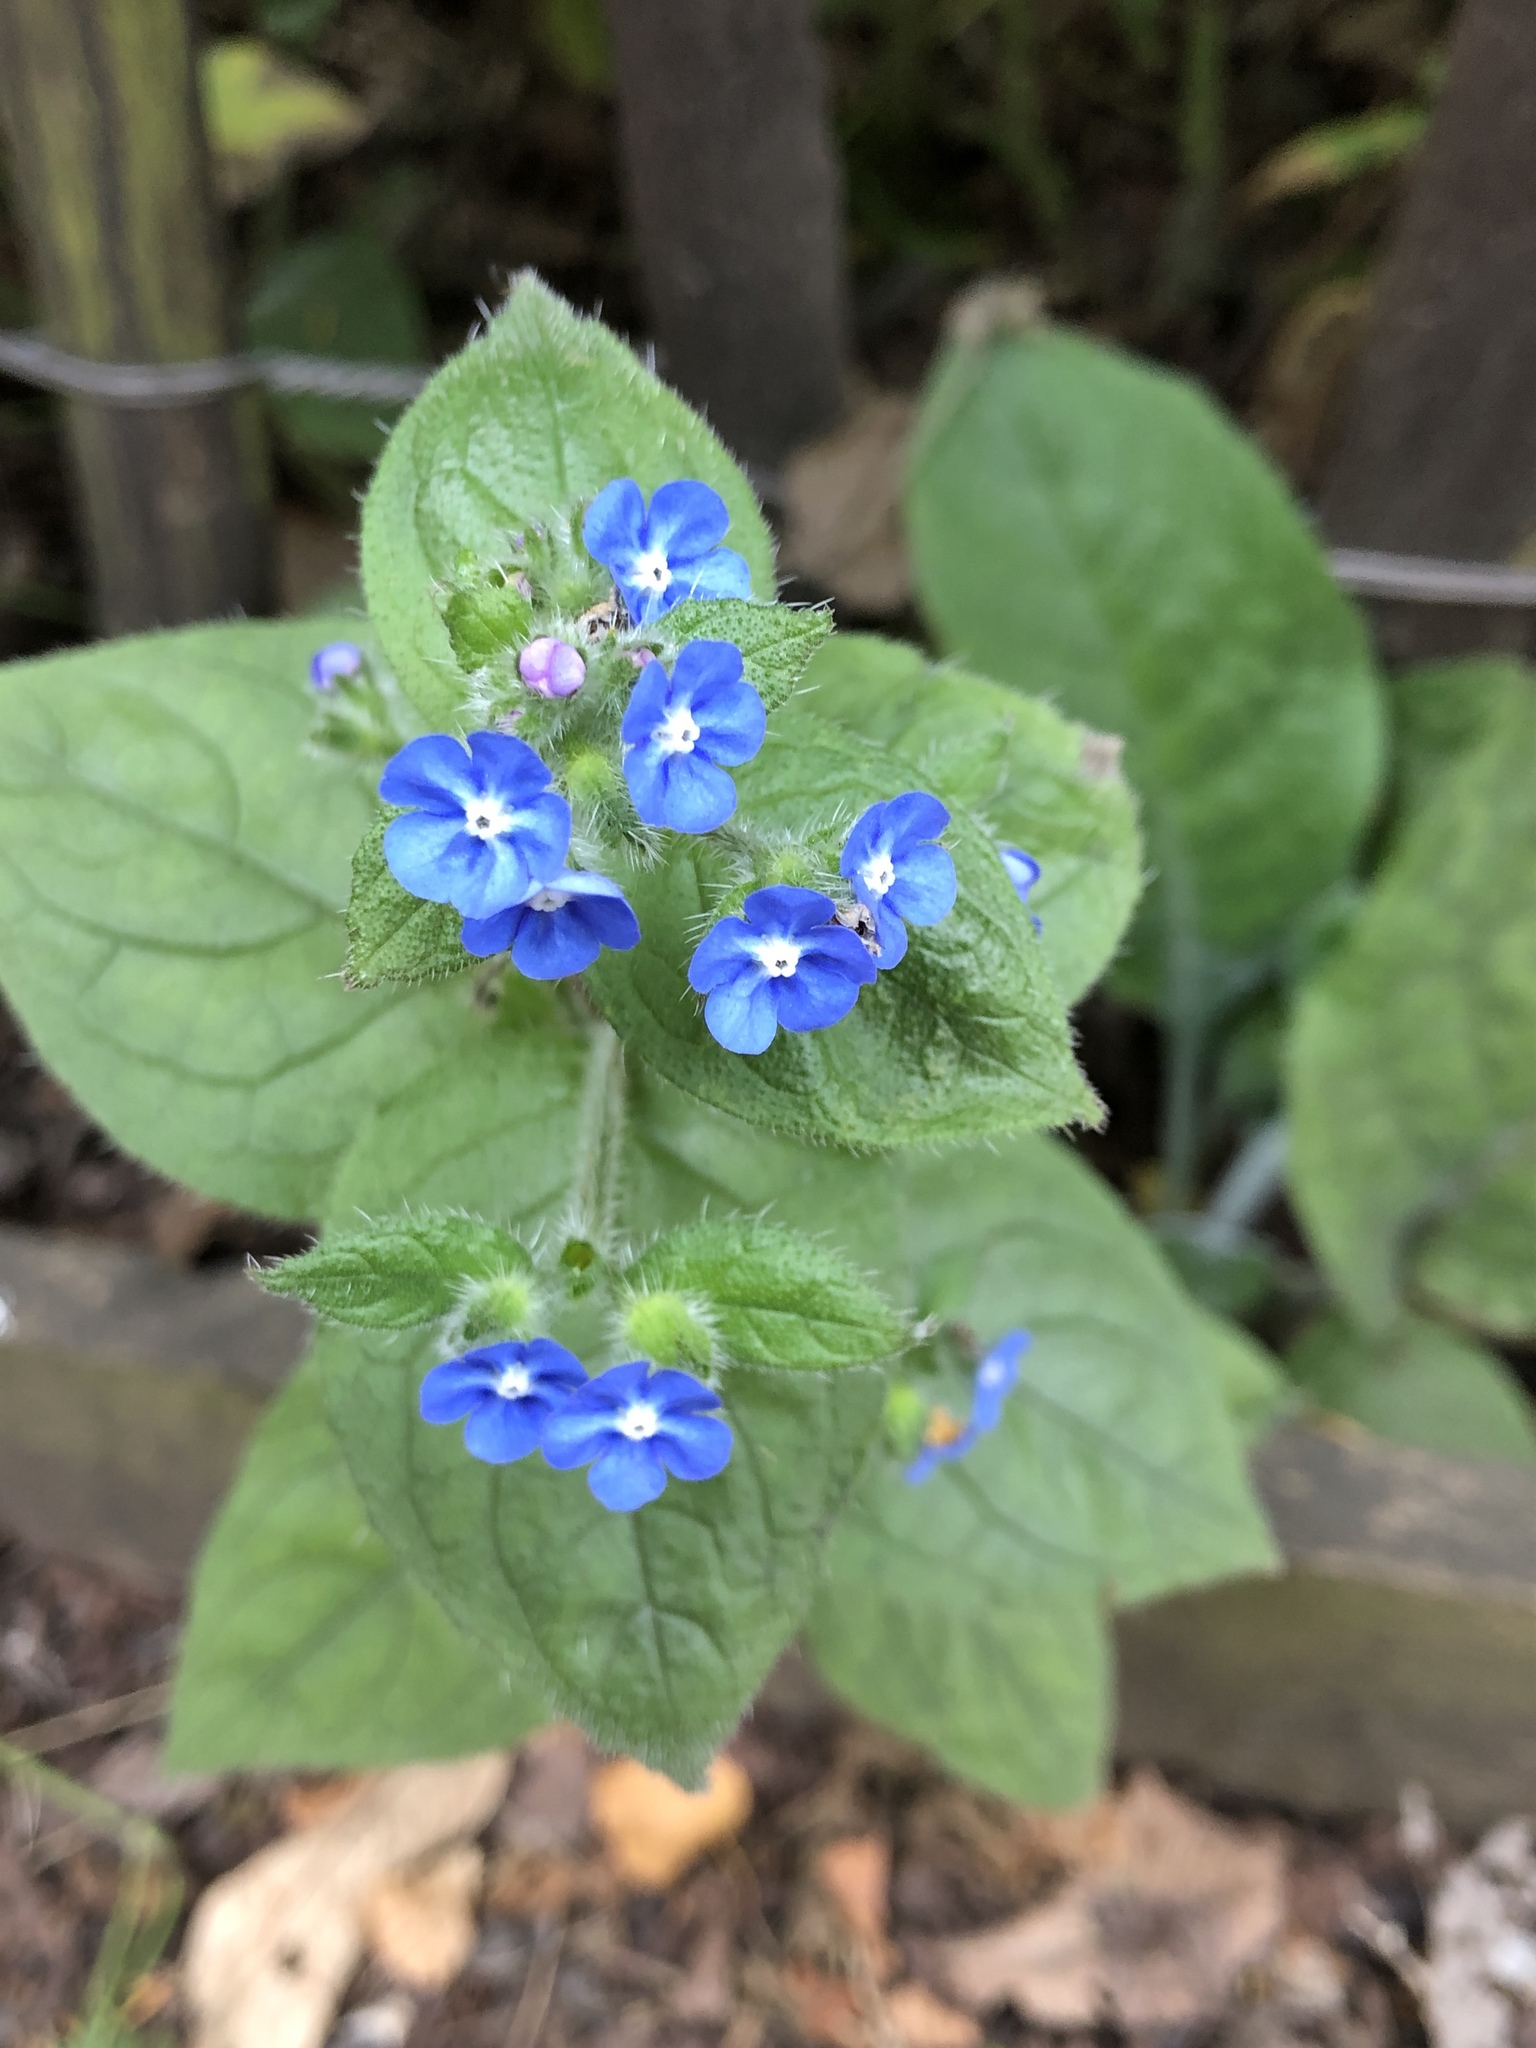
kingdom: Plantae
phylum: Tracheophyta
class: Magnoliopsida
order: Boraginales
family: Boraginaceae
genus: Pentaglottis
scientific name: Pentaglottis sempervirens
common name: Green alkanet
